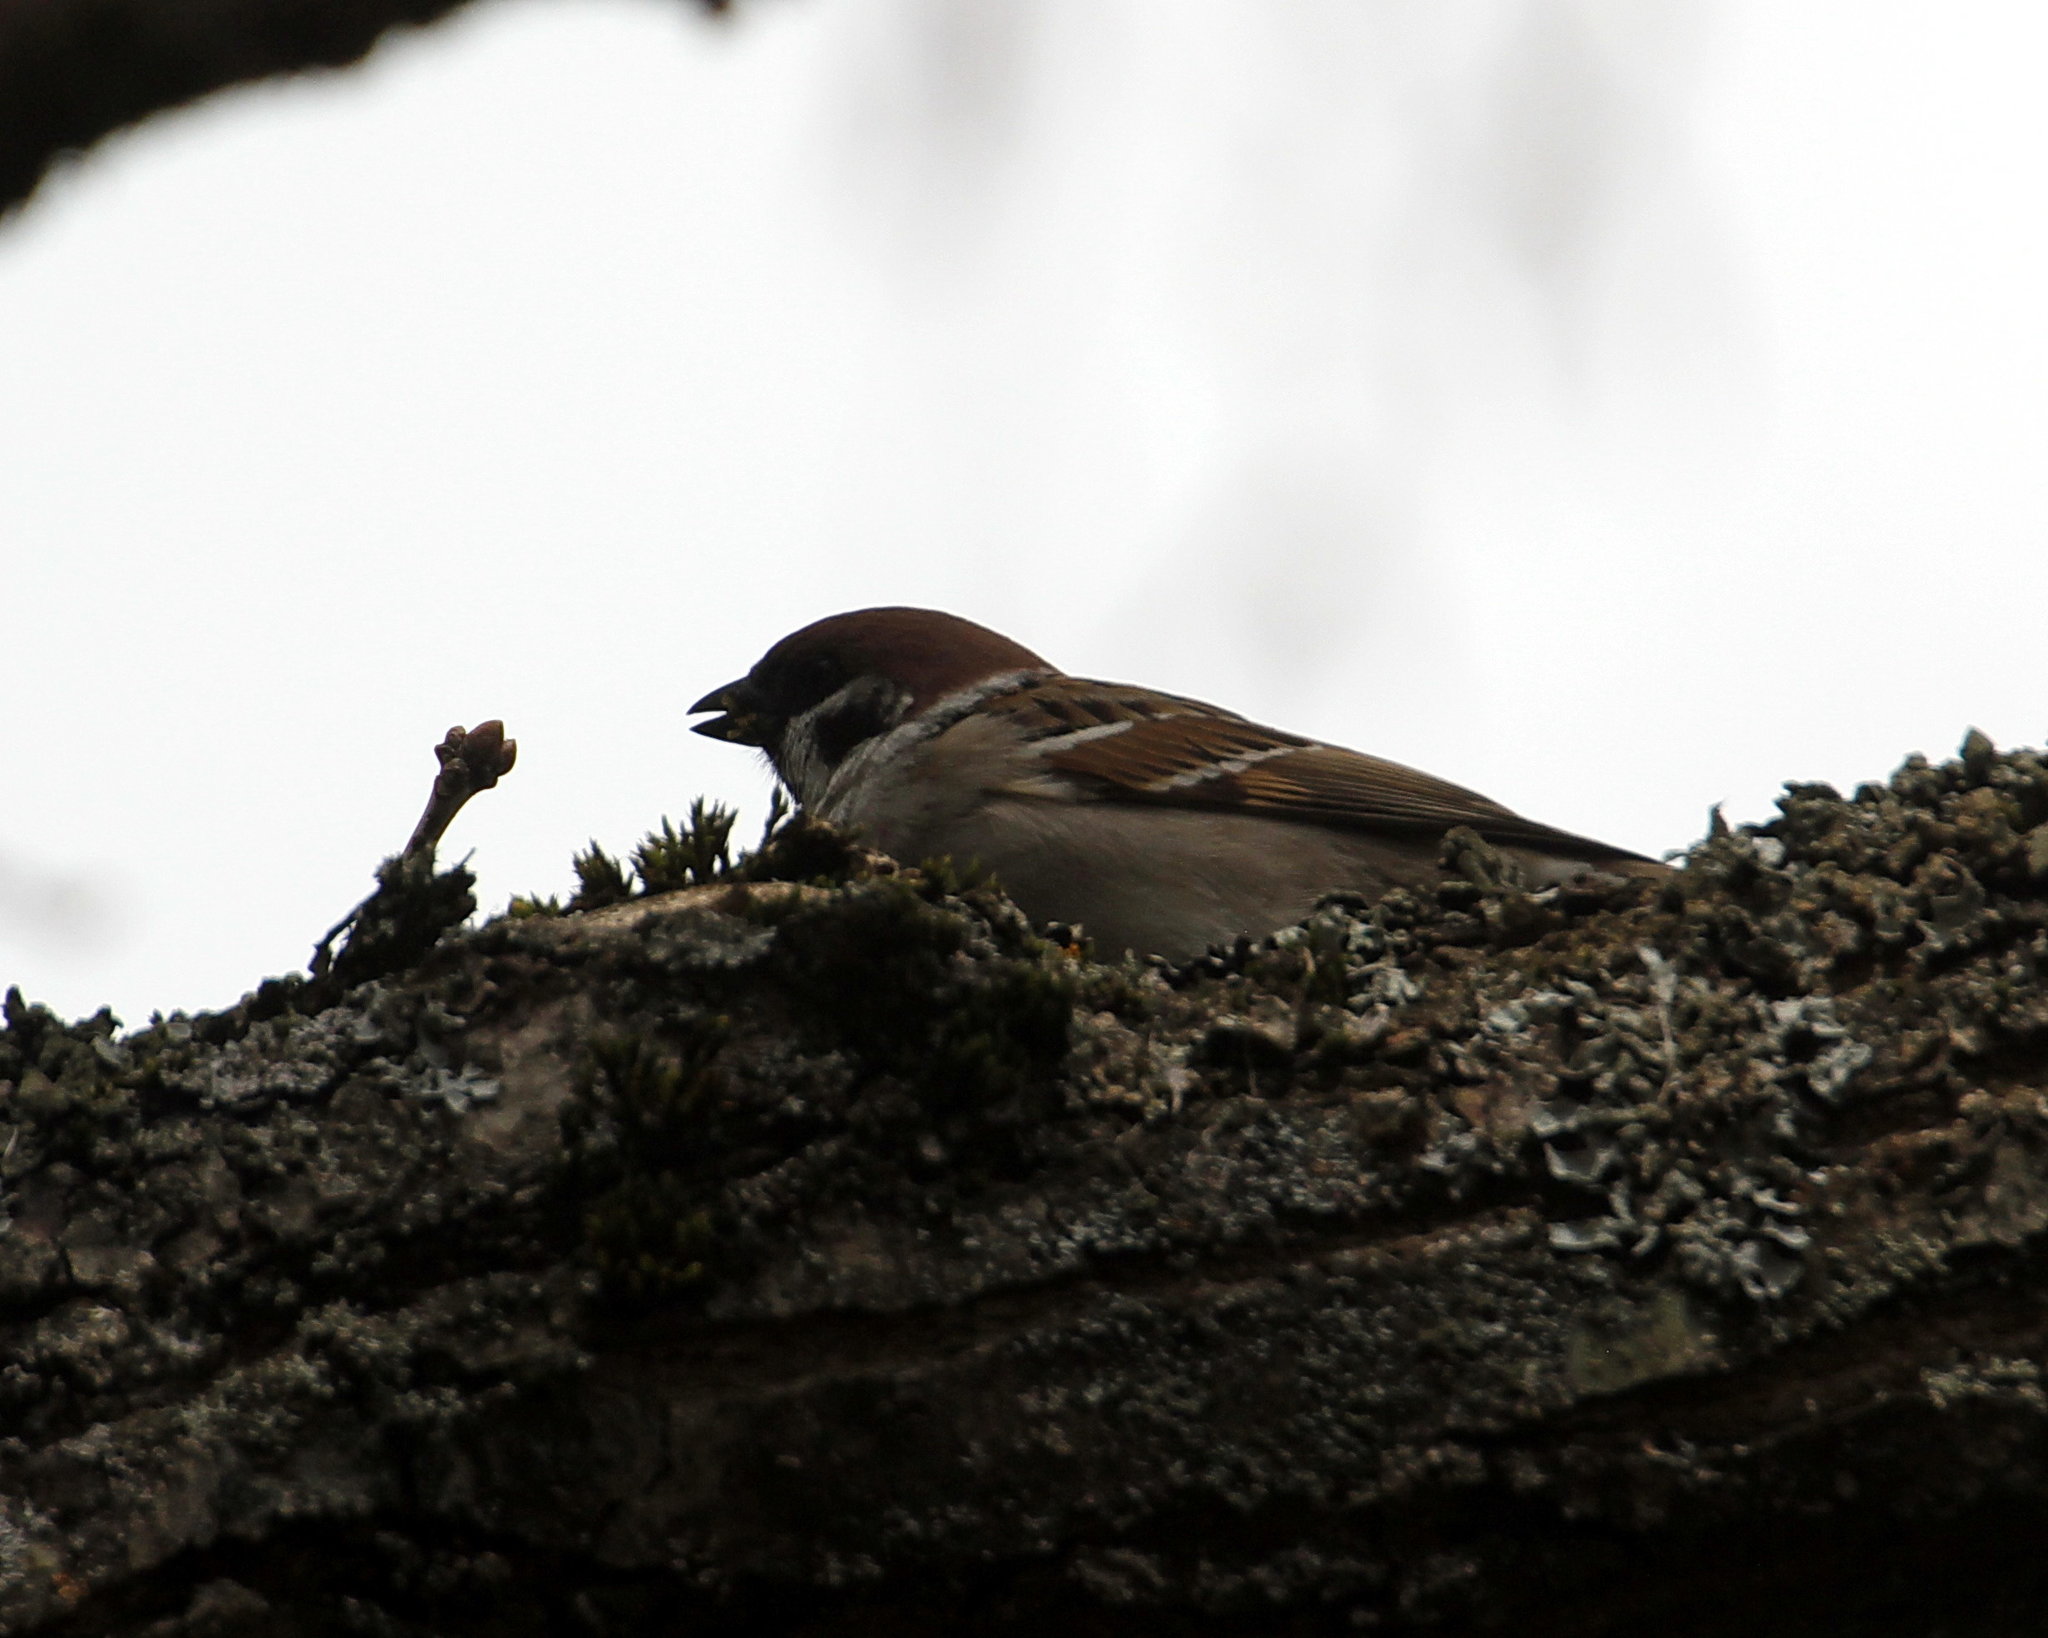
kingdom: Animalia
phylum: Chordata
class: Aves
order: Passeriformes
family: Passeridae
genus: Passer
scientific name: Passer montanus
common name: Eurasian tree sparrow
